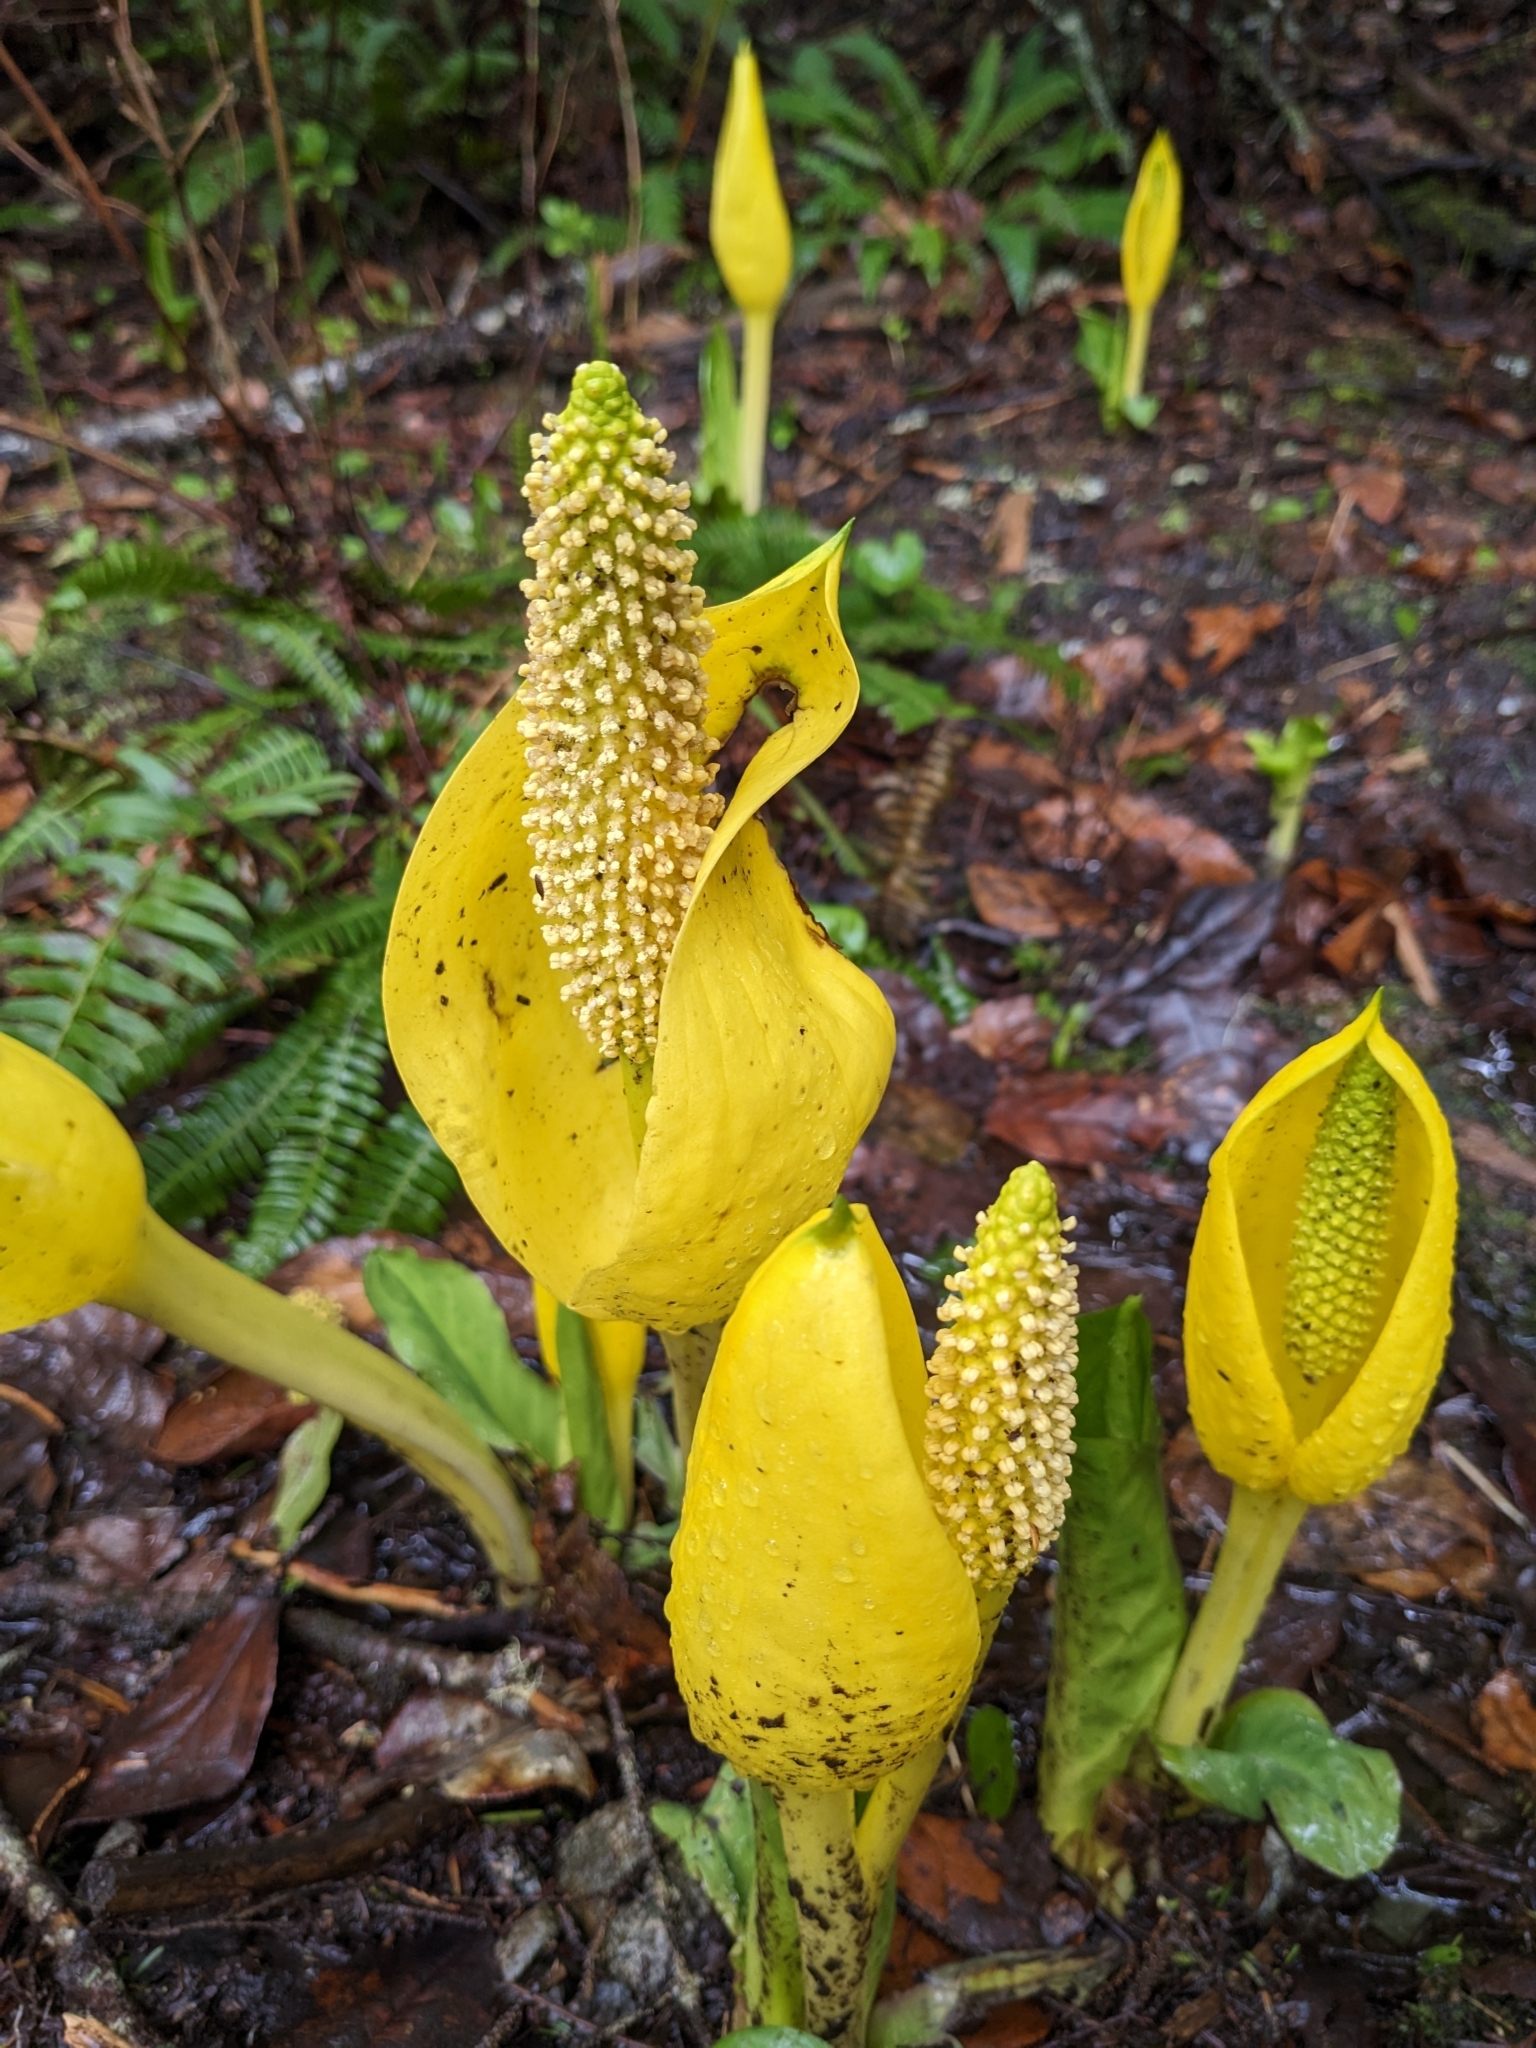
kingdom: Plantae
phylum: Tracheophyta
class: Liliopsida
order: Alismatales
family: Araceae
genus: Lysichiton
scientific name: Lysichiton americanus
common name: American skunk cabbage
